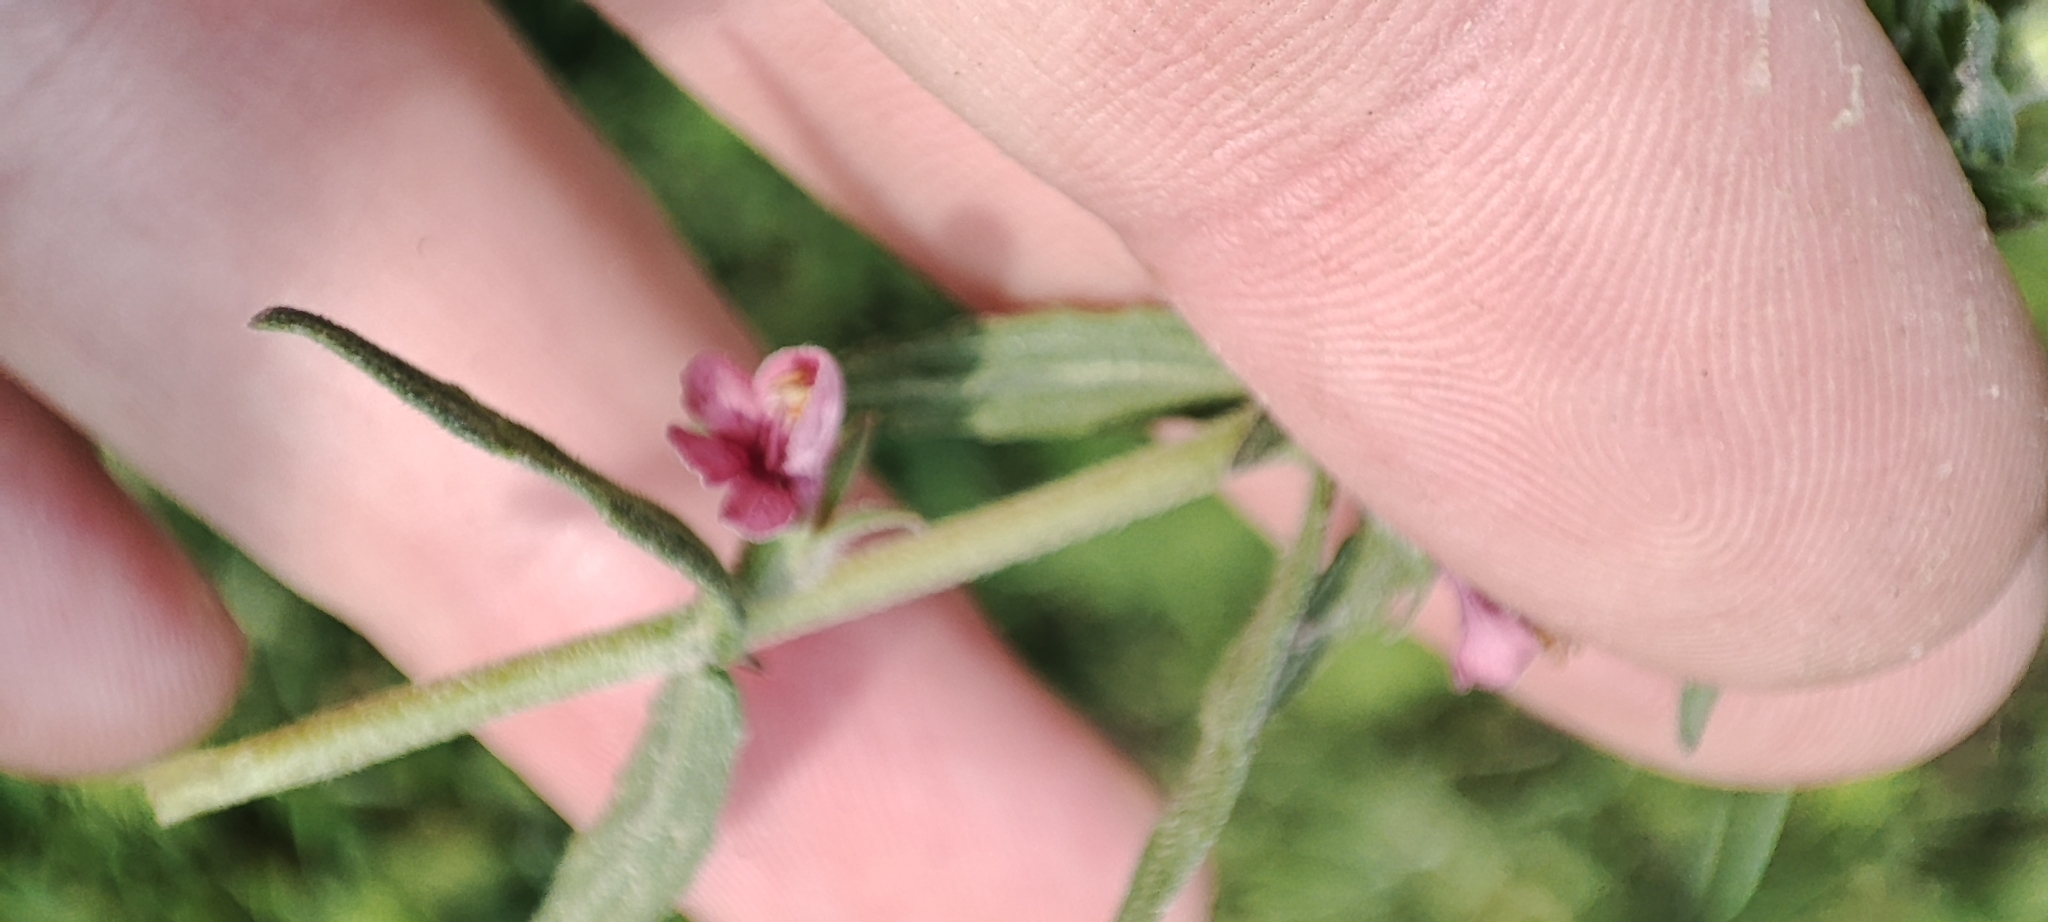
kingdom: Plantae
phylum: Tracheophyta
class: Magnoliopsida
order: Lamiales
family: Orobanchaceae
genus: Odontites
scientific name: Odontites vulgaris
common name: Broomrape
